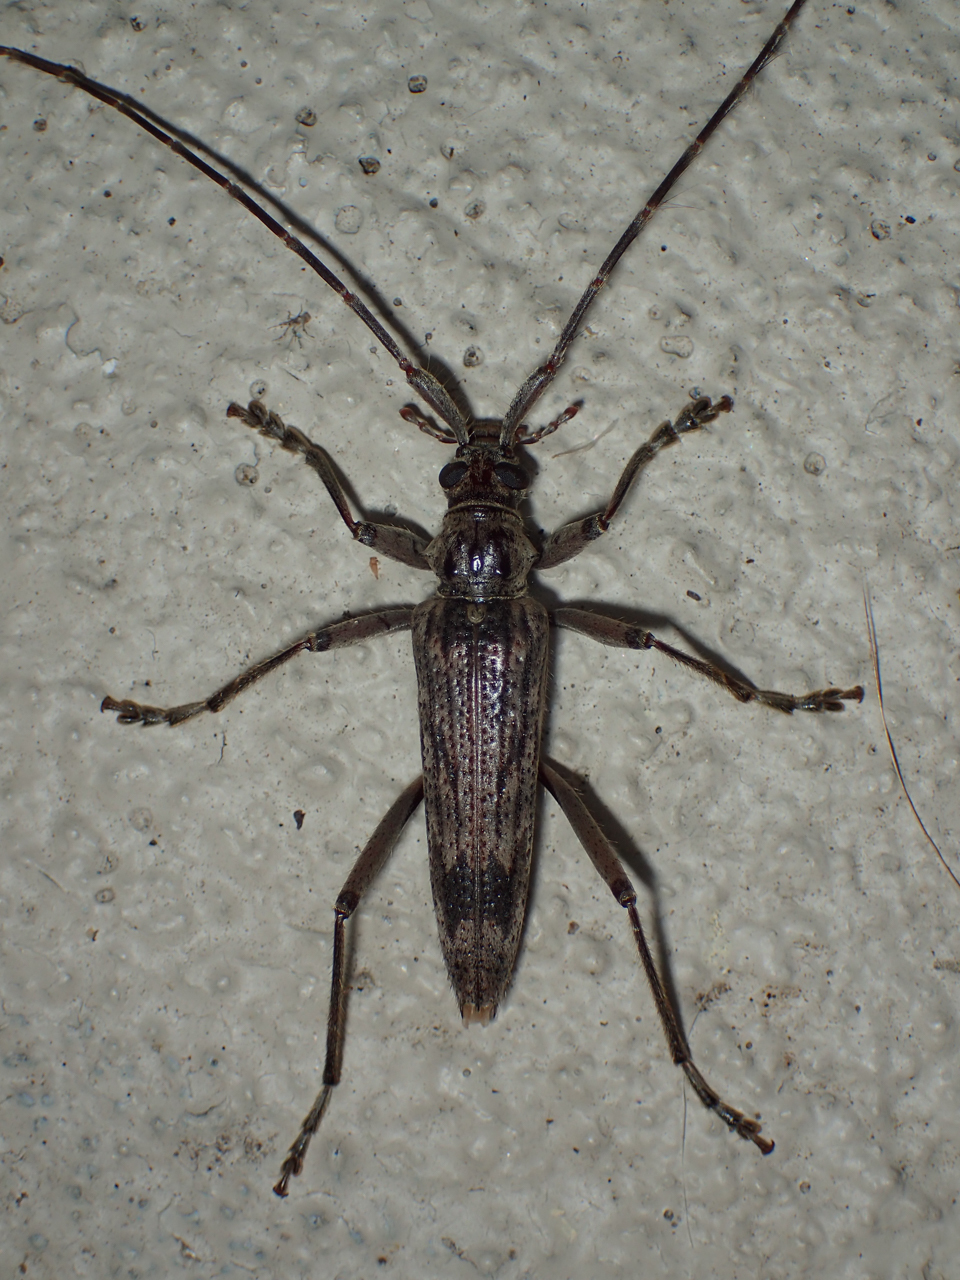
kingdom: Animalia
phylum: Arthropoda
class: Insecta
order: Coleoptera
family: Cerambycidae
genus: Elytrimitatrix
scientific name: Elytrimitatrix undata
